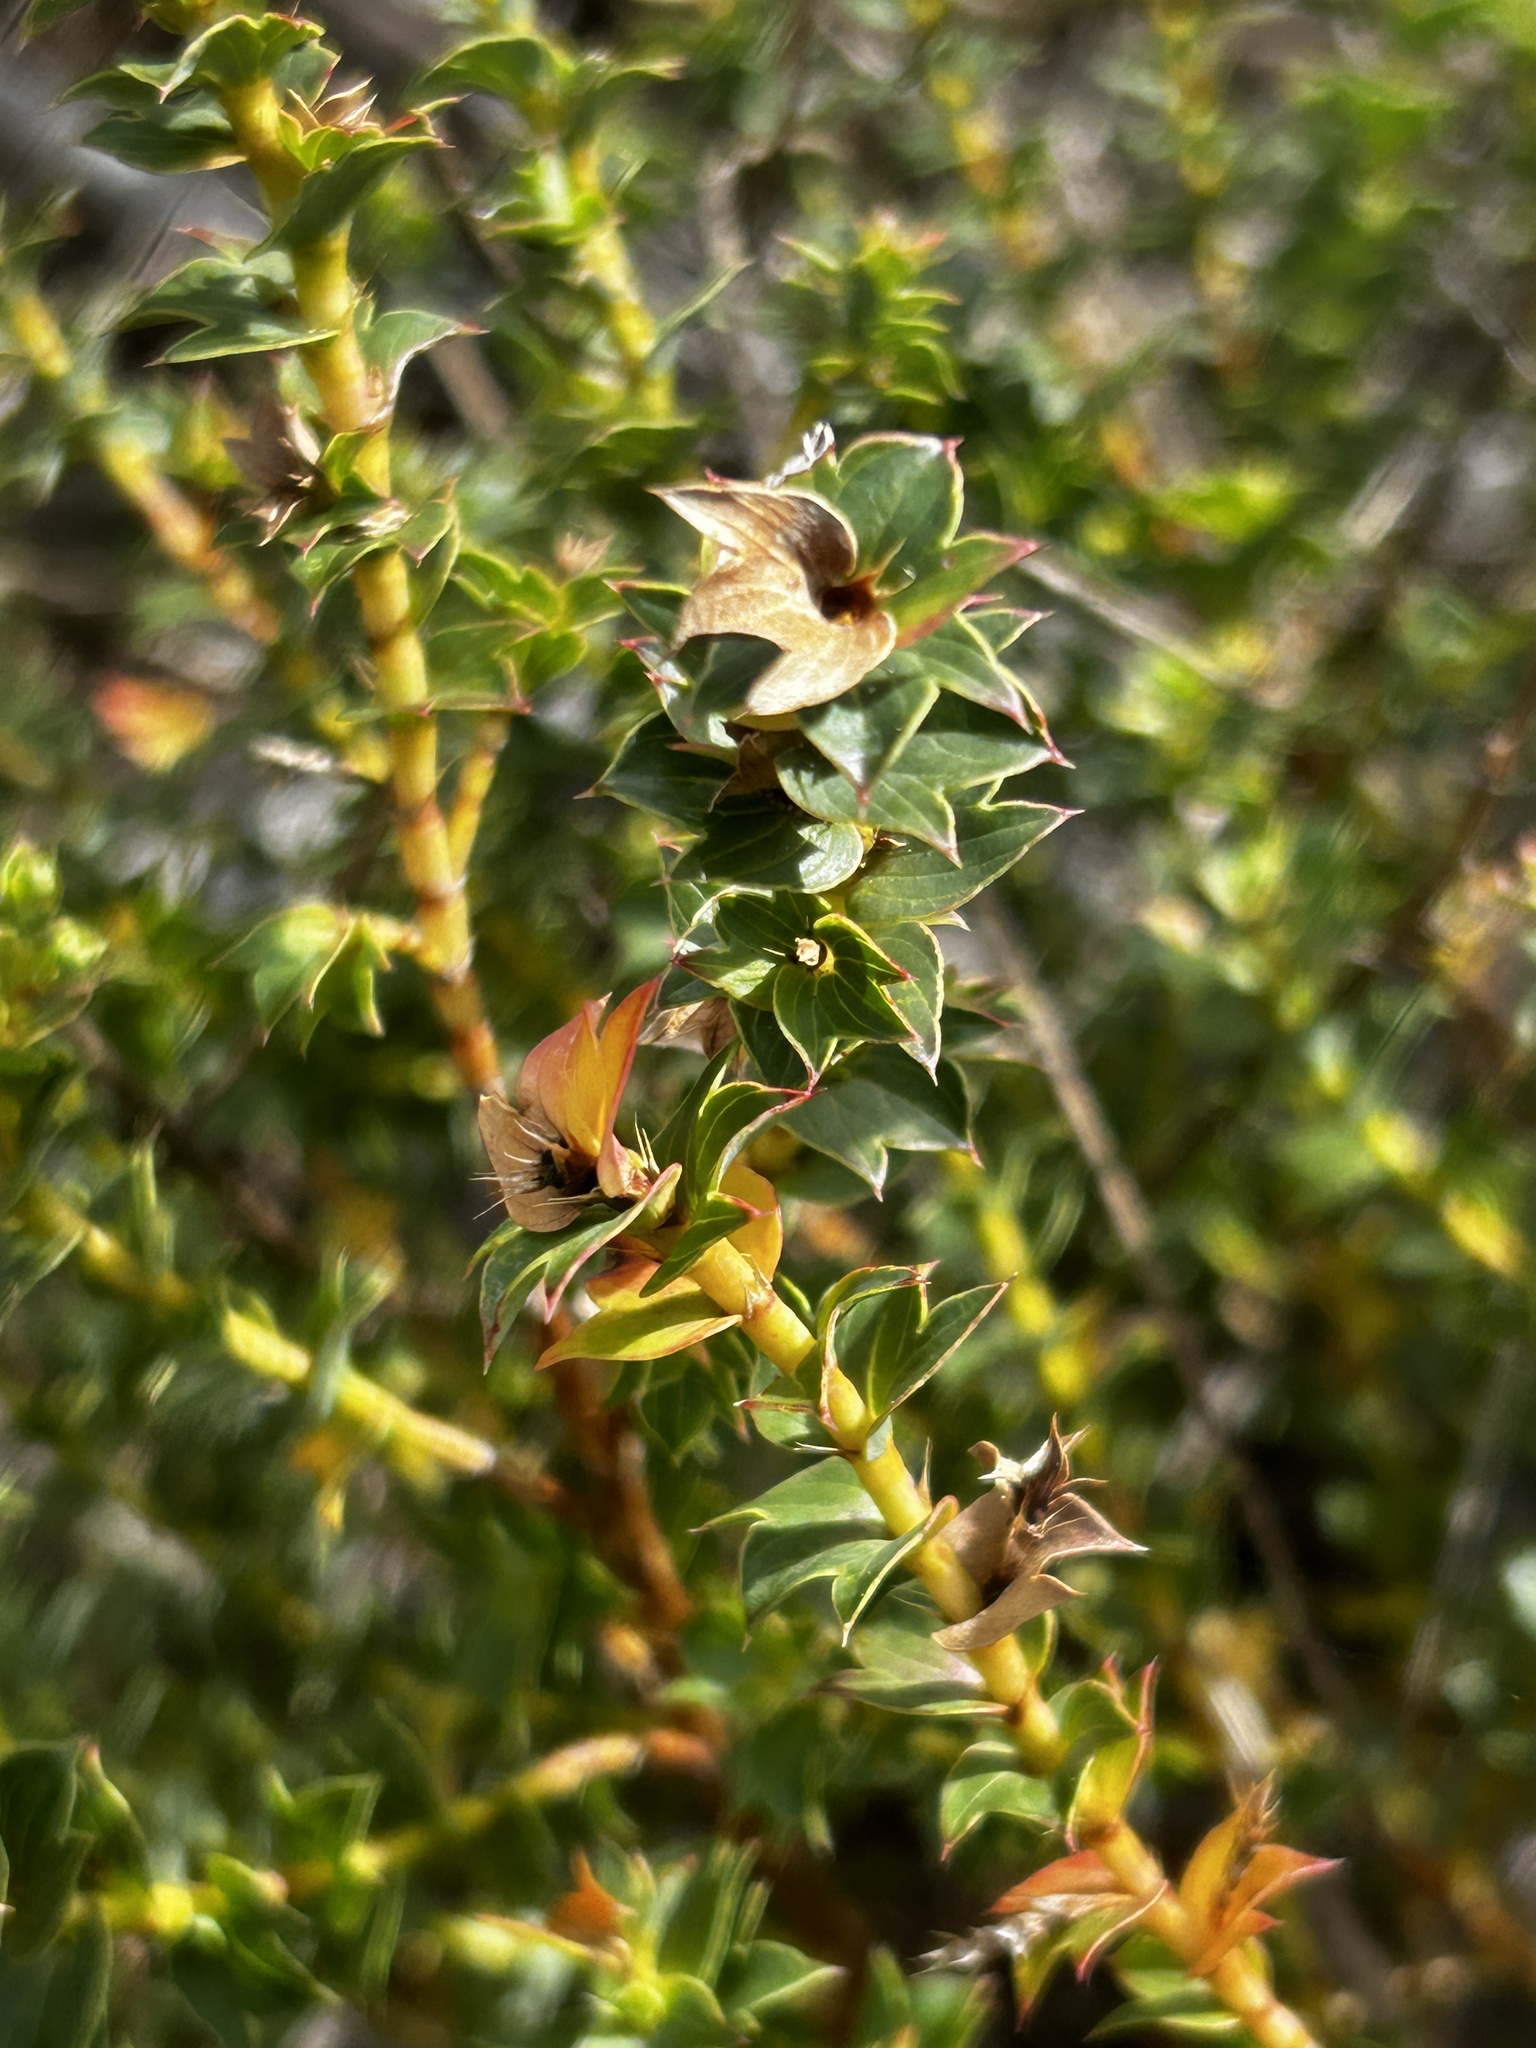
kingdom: Plantae
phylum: Tracheophyta
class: Magnoliopsida
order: Rosales
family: Rosaceae
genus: Cliffortia
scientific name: Cliffortia schlechteri
